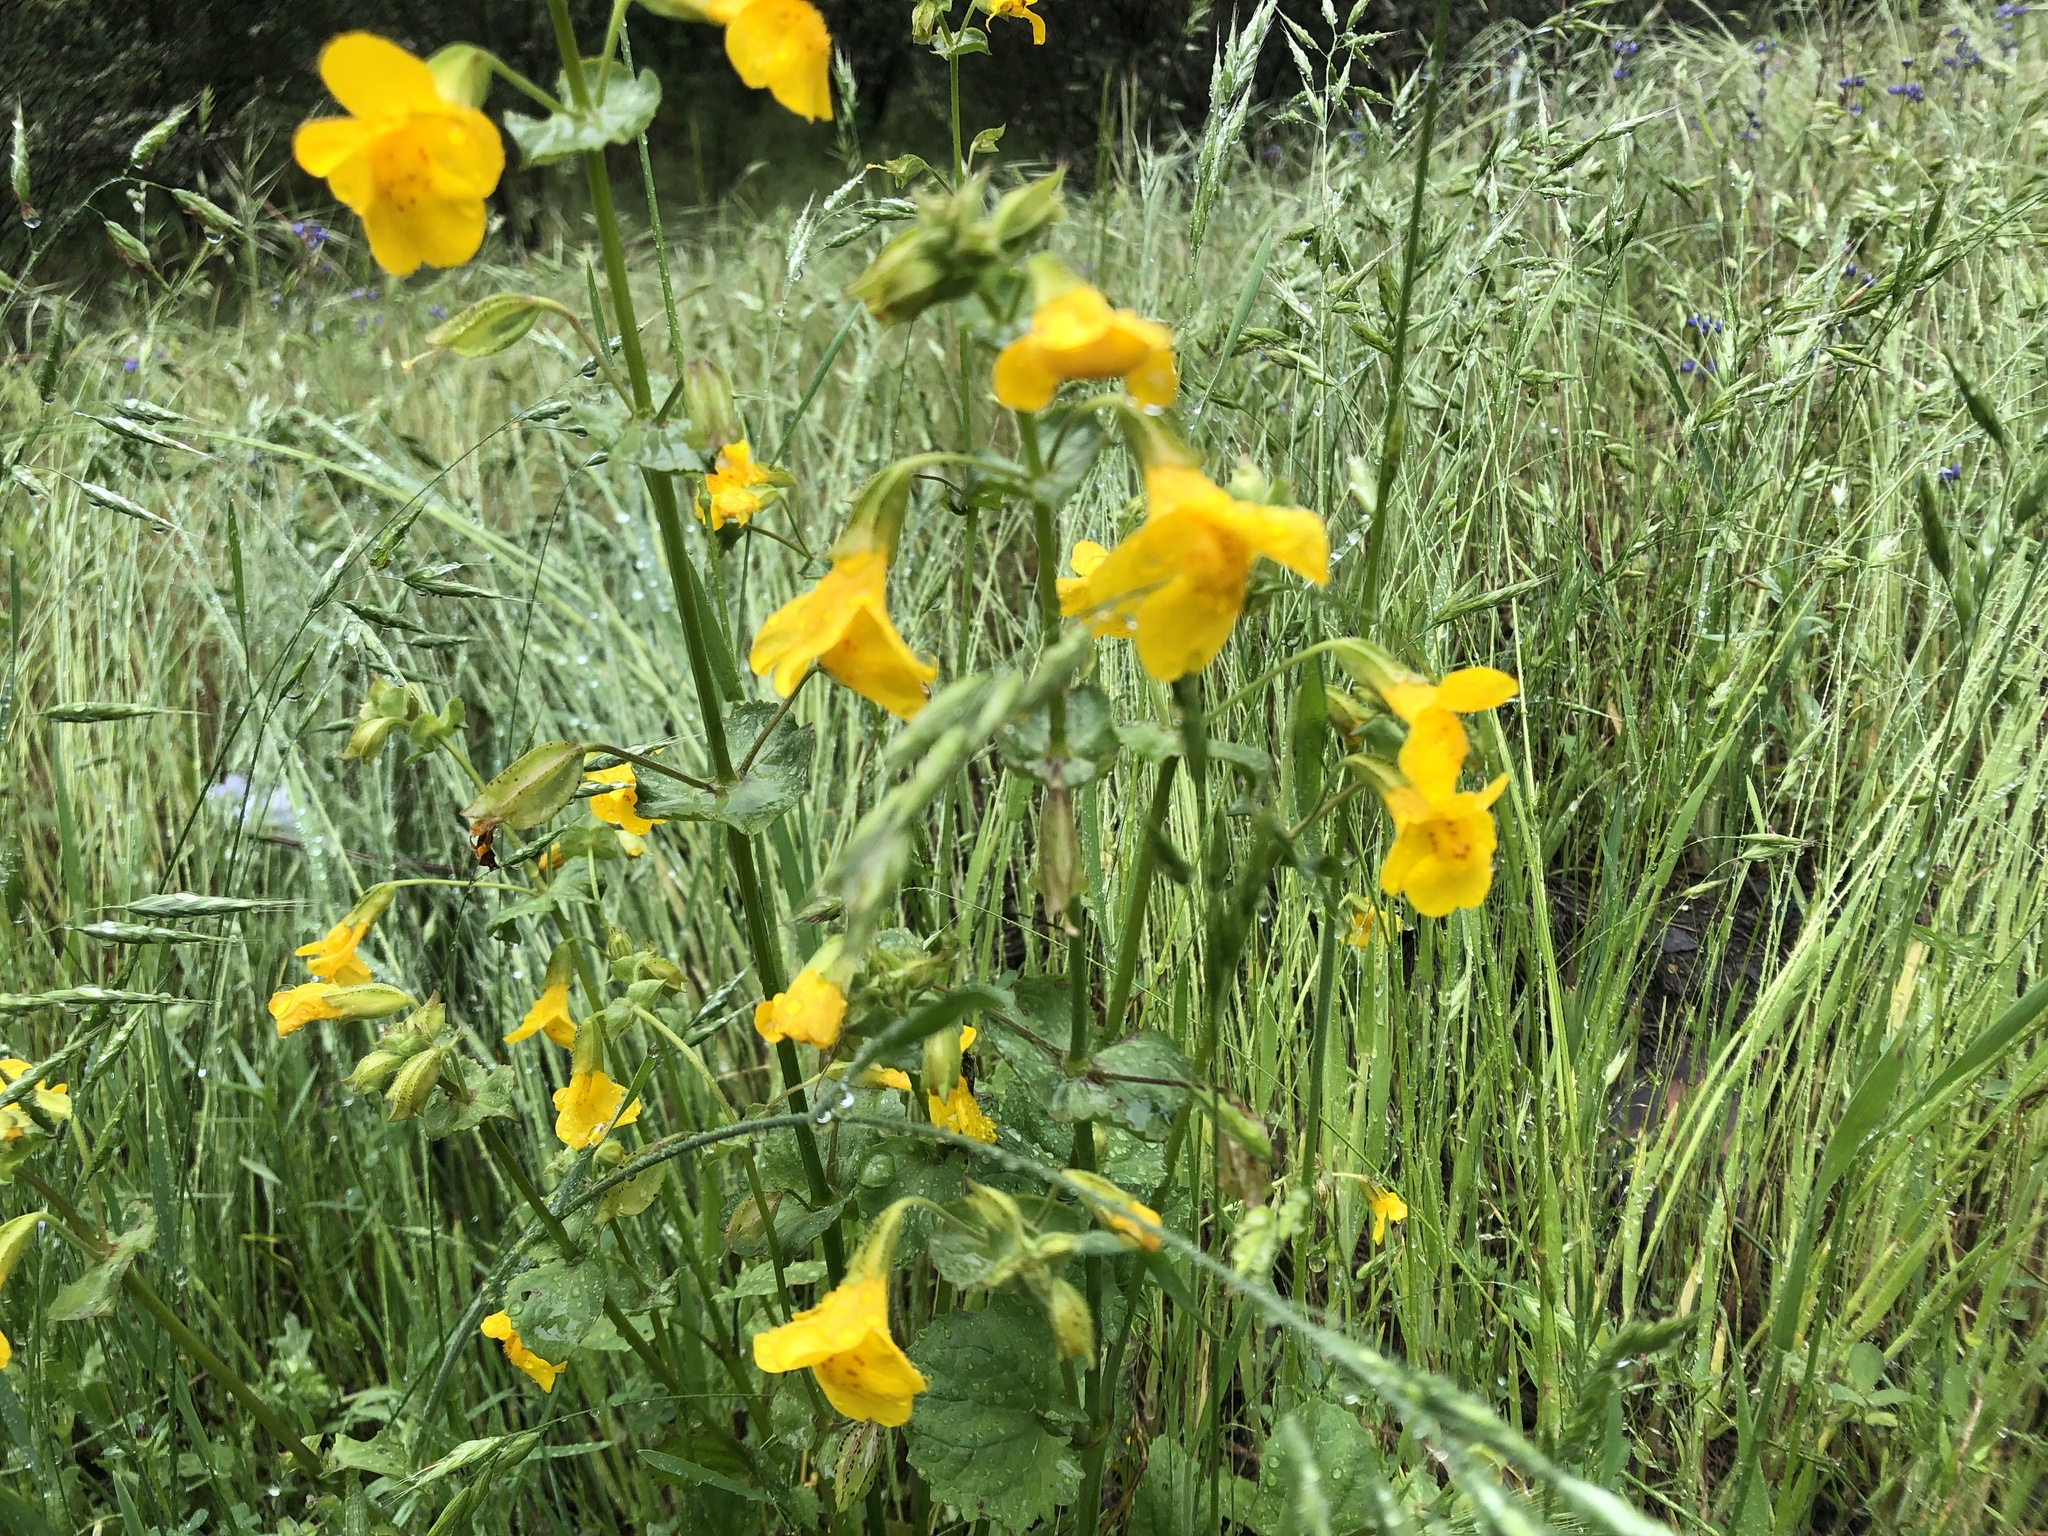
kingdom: Plantae
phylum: Tracheophyta
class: Magnoliopsida
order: Lamiales
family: Phrymaceae
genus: Erythranthe
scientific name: Erythranthe guttata
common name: Monkeyflower
